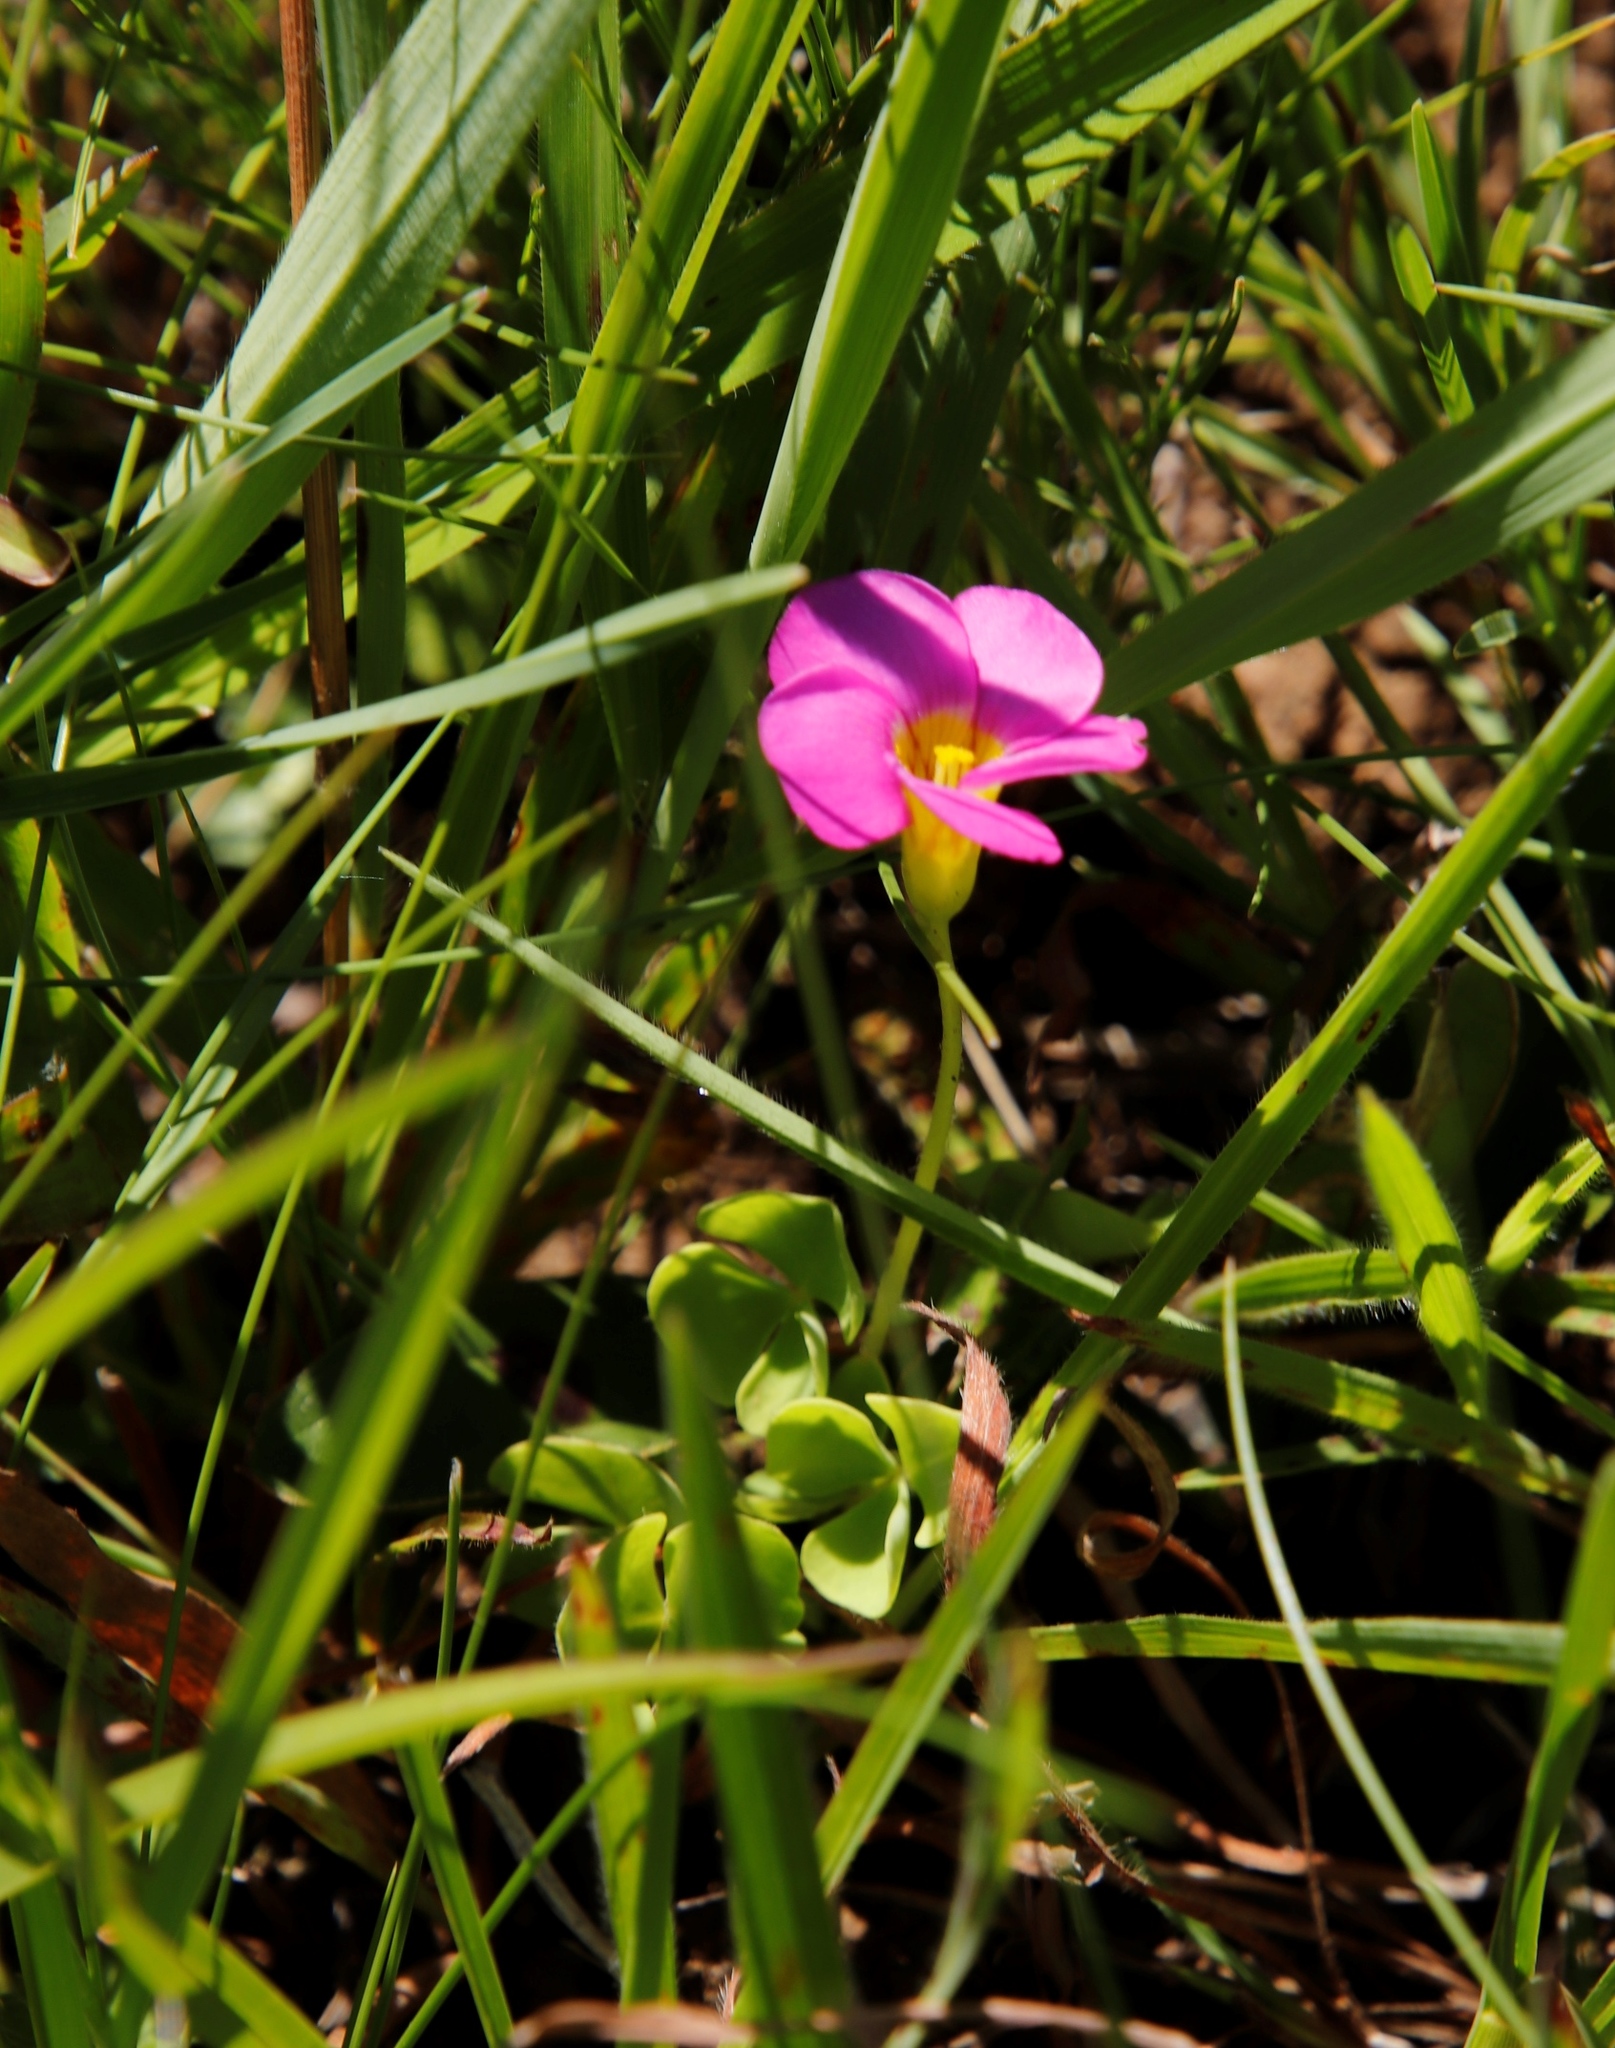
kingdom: Plantae
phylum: Tracheophyta
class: Magnoliopsida
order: Oxalidales
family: Oxalidaceae
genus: Oxalis
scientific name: Oxalis obliquifolia
